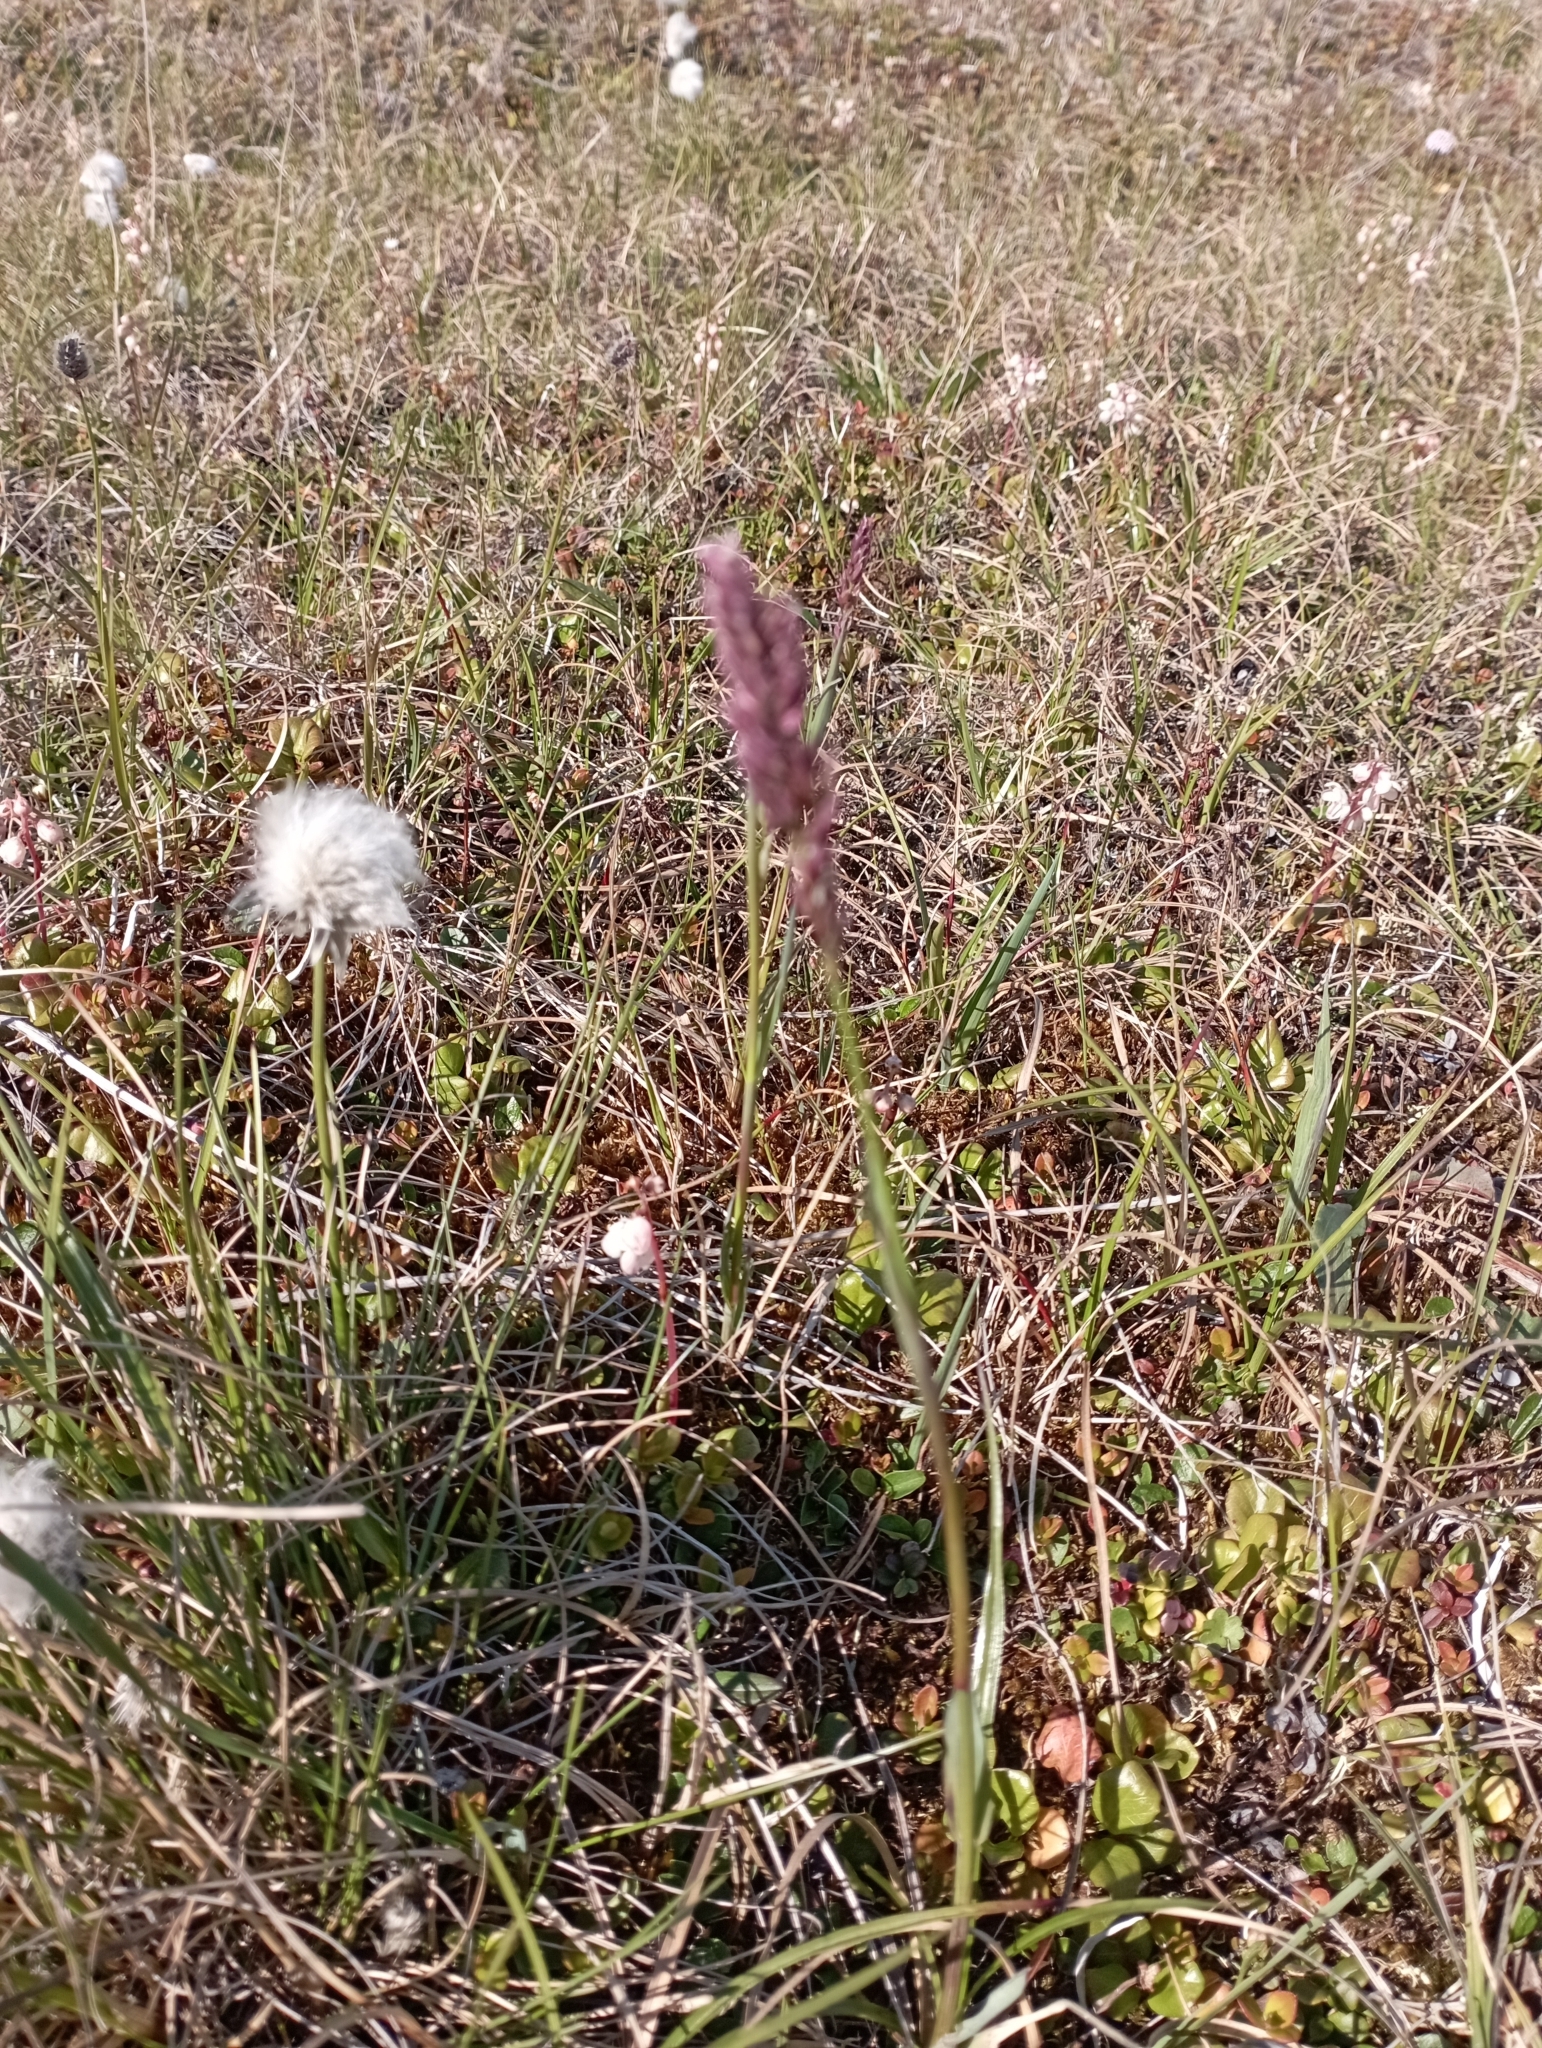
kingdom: Plantae
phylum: Tracheophyta
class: Liliopsida
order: Poales
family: Poaceae
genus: Arctagrostis
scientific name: Arctagrostis latifolia
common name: Arctic grass
